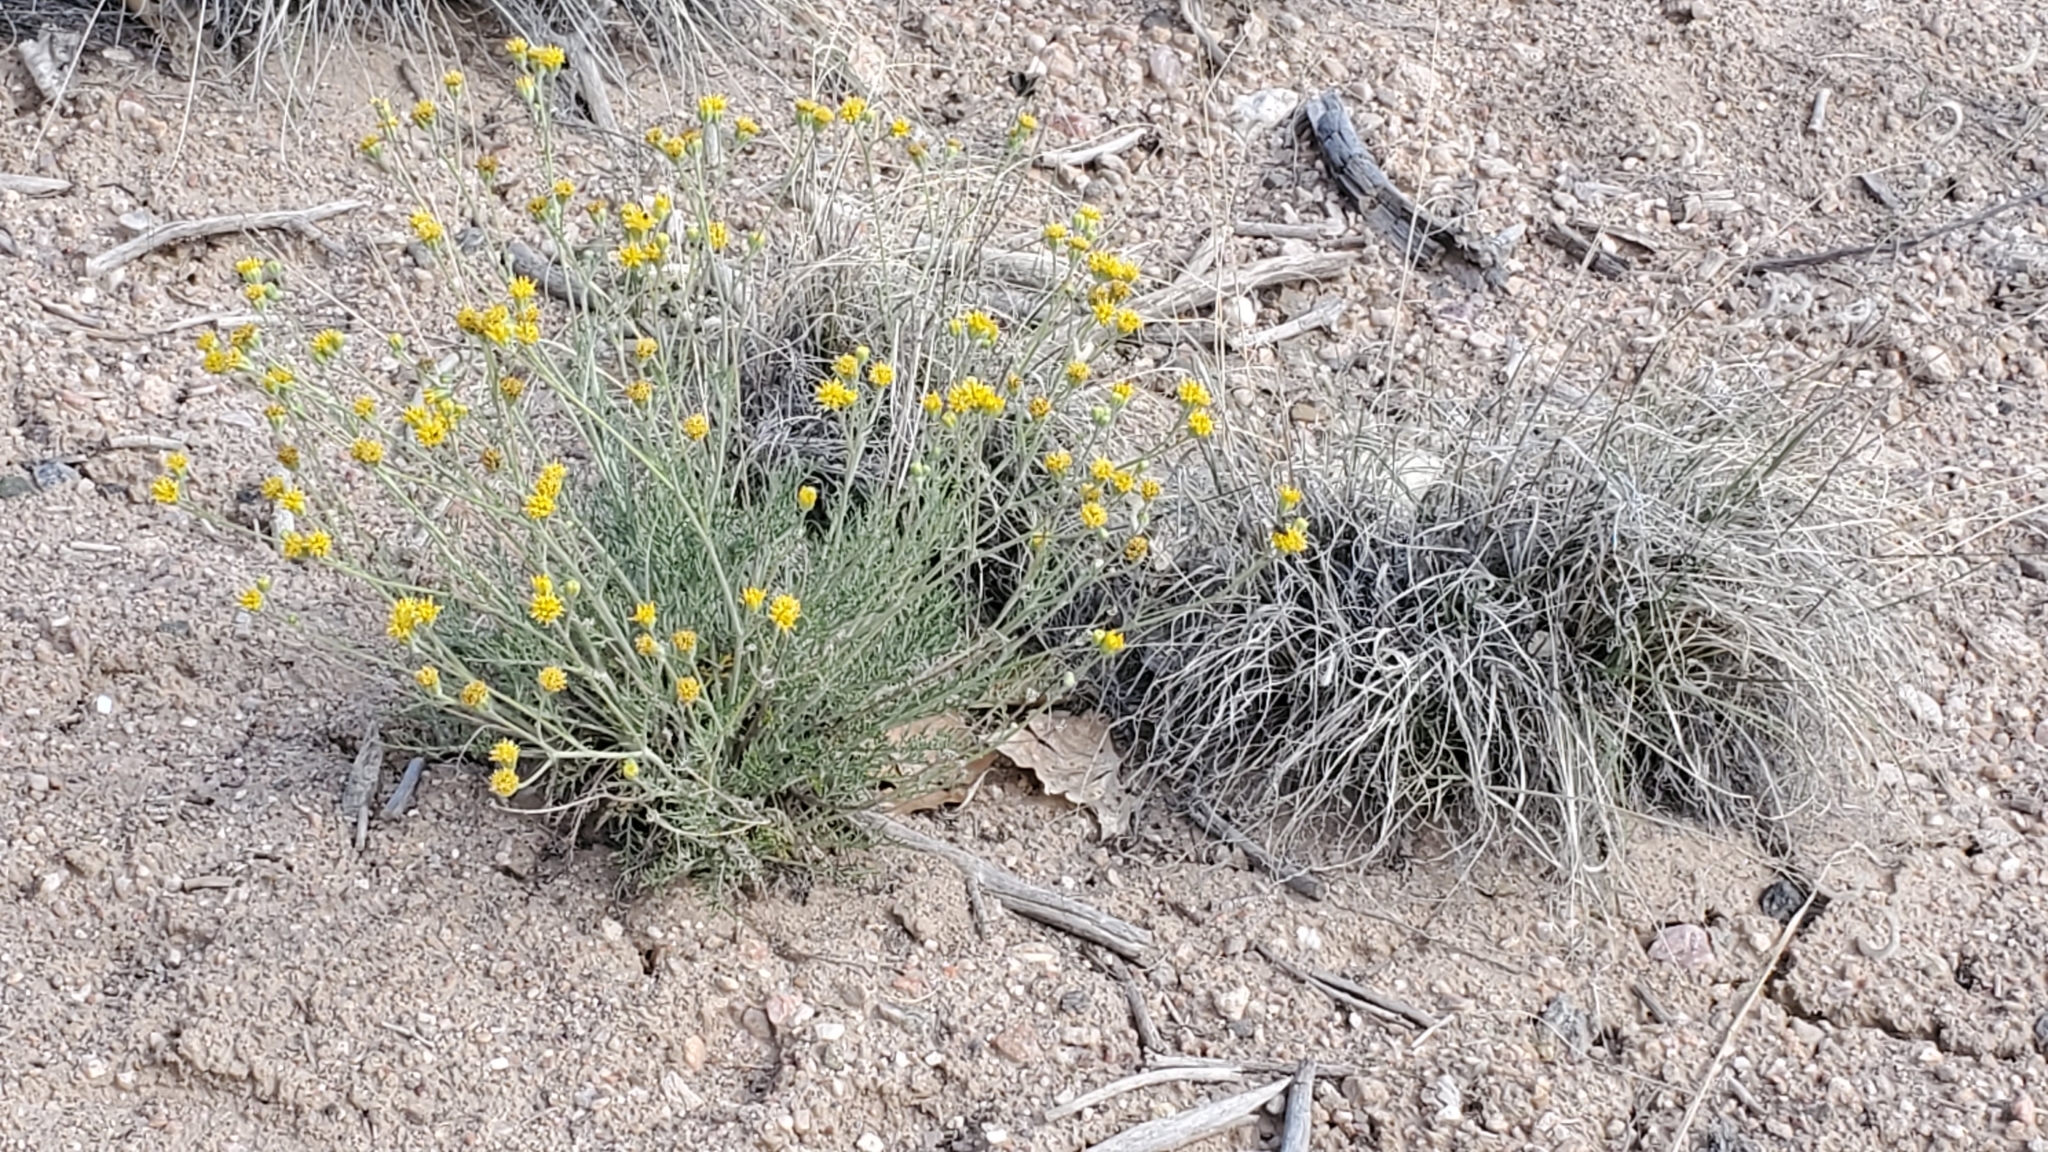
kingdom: Plantae
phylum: Tracheophyta
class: Magnoliopsida
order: Asterales
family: Asteraceae
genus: Hymenopappus
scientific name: Hymenopappus filifolius
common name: Columbia cutleaf
